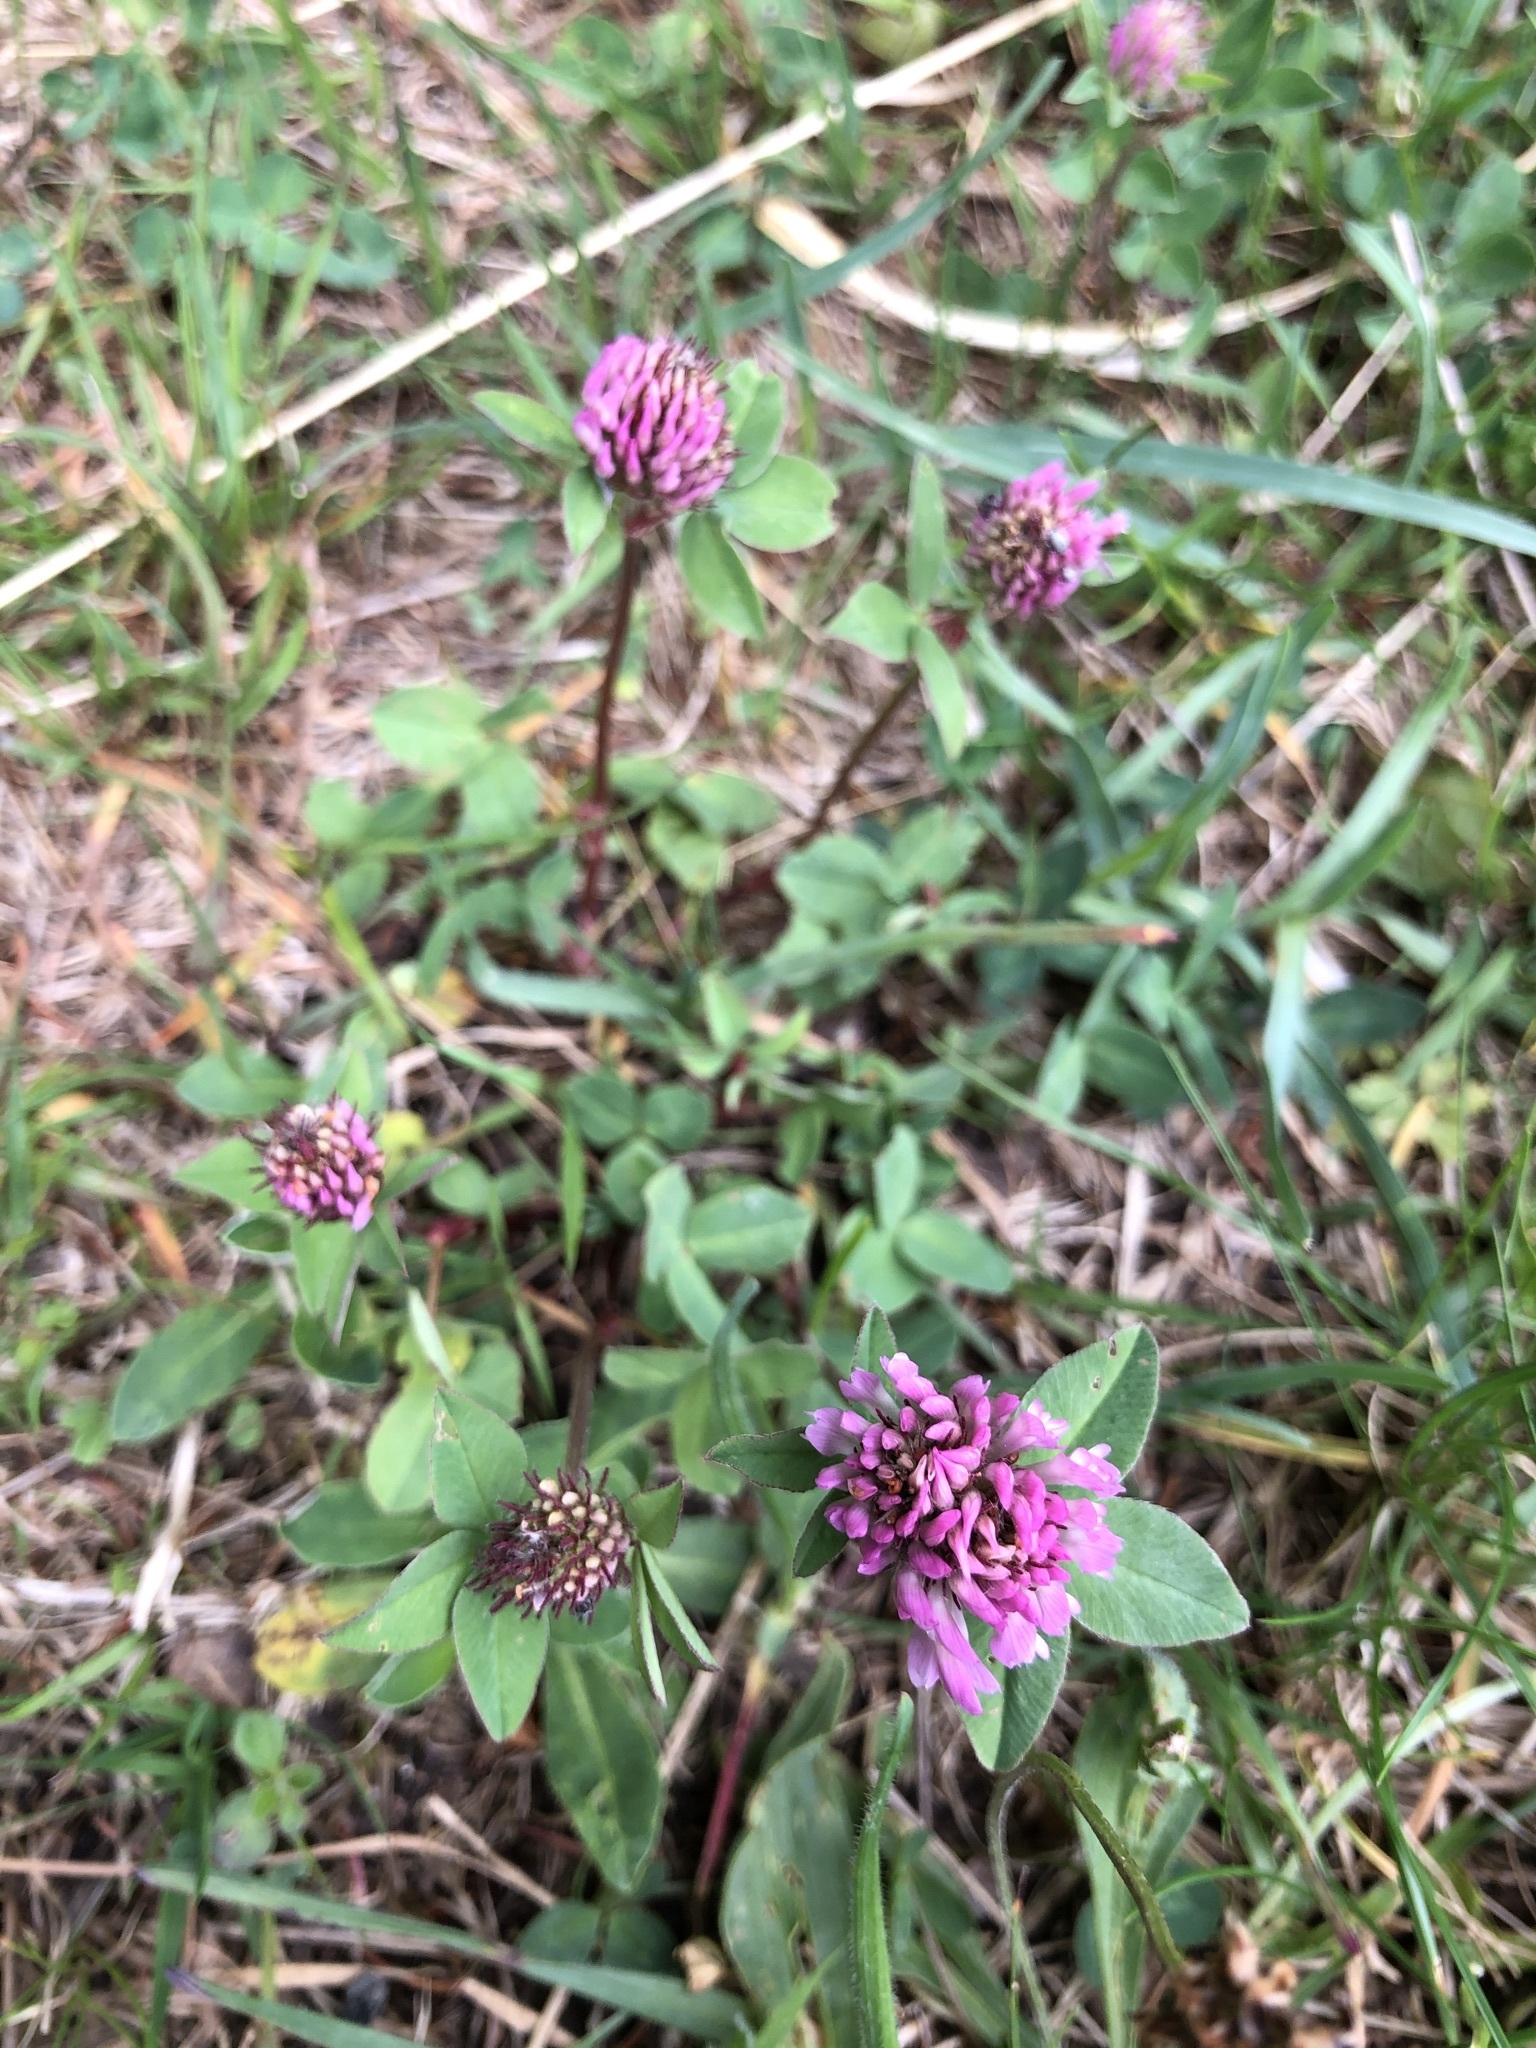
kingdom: Plantae
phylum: Tracheophyta
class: Magnoliopsida
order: Fabales
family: Fabaceae
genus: Trifolium
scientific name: Trifolium pratense
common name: Red clover
